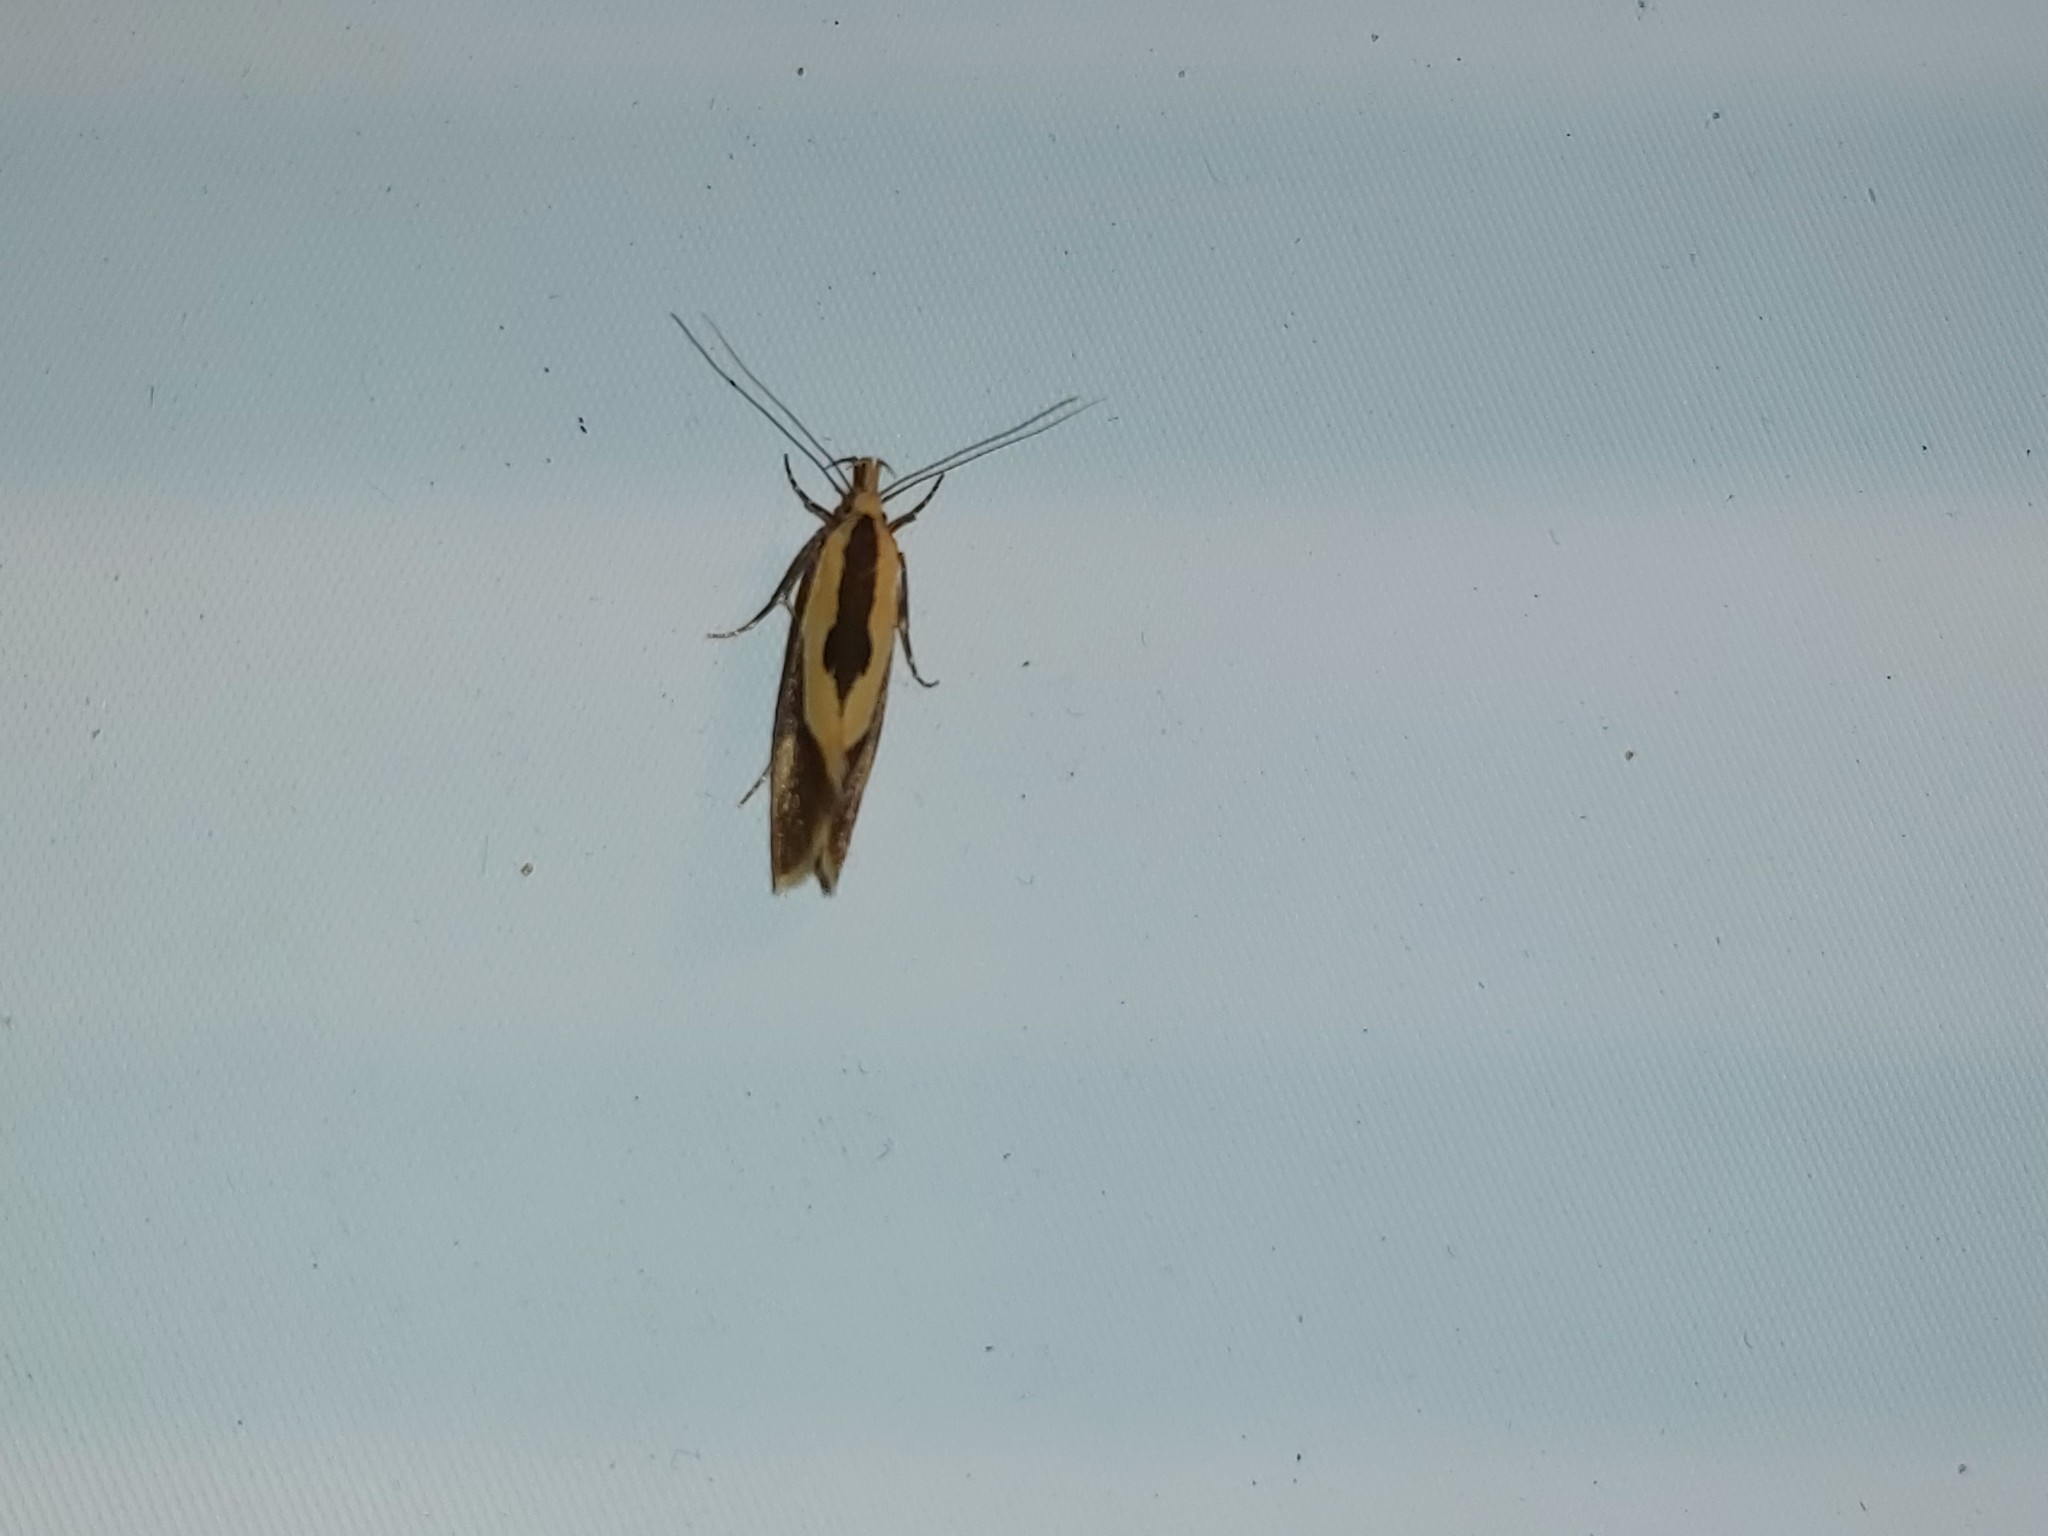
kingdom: Animalia
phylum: Arthropoda
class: Insecta
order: Lepidoptera
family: Oecophoridae
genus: Harpella
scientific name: Harpella forficella
